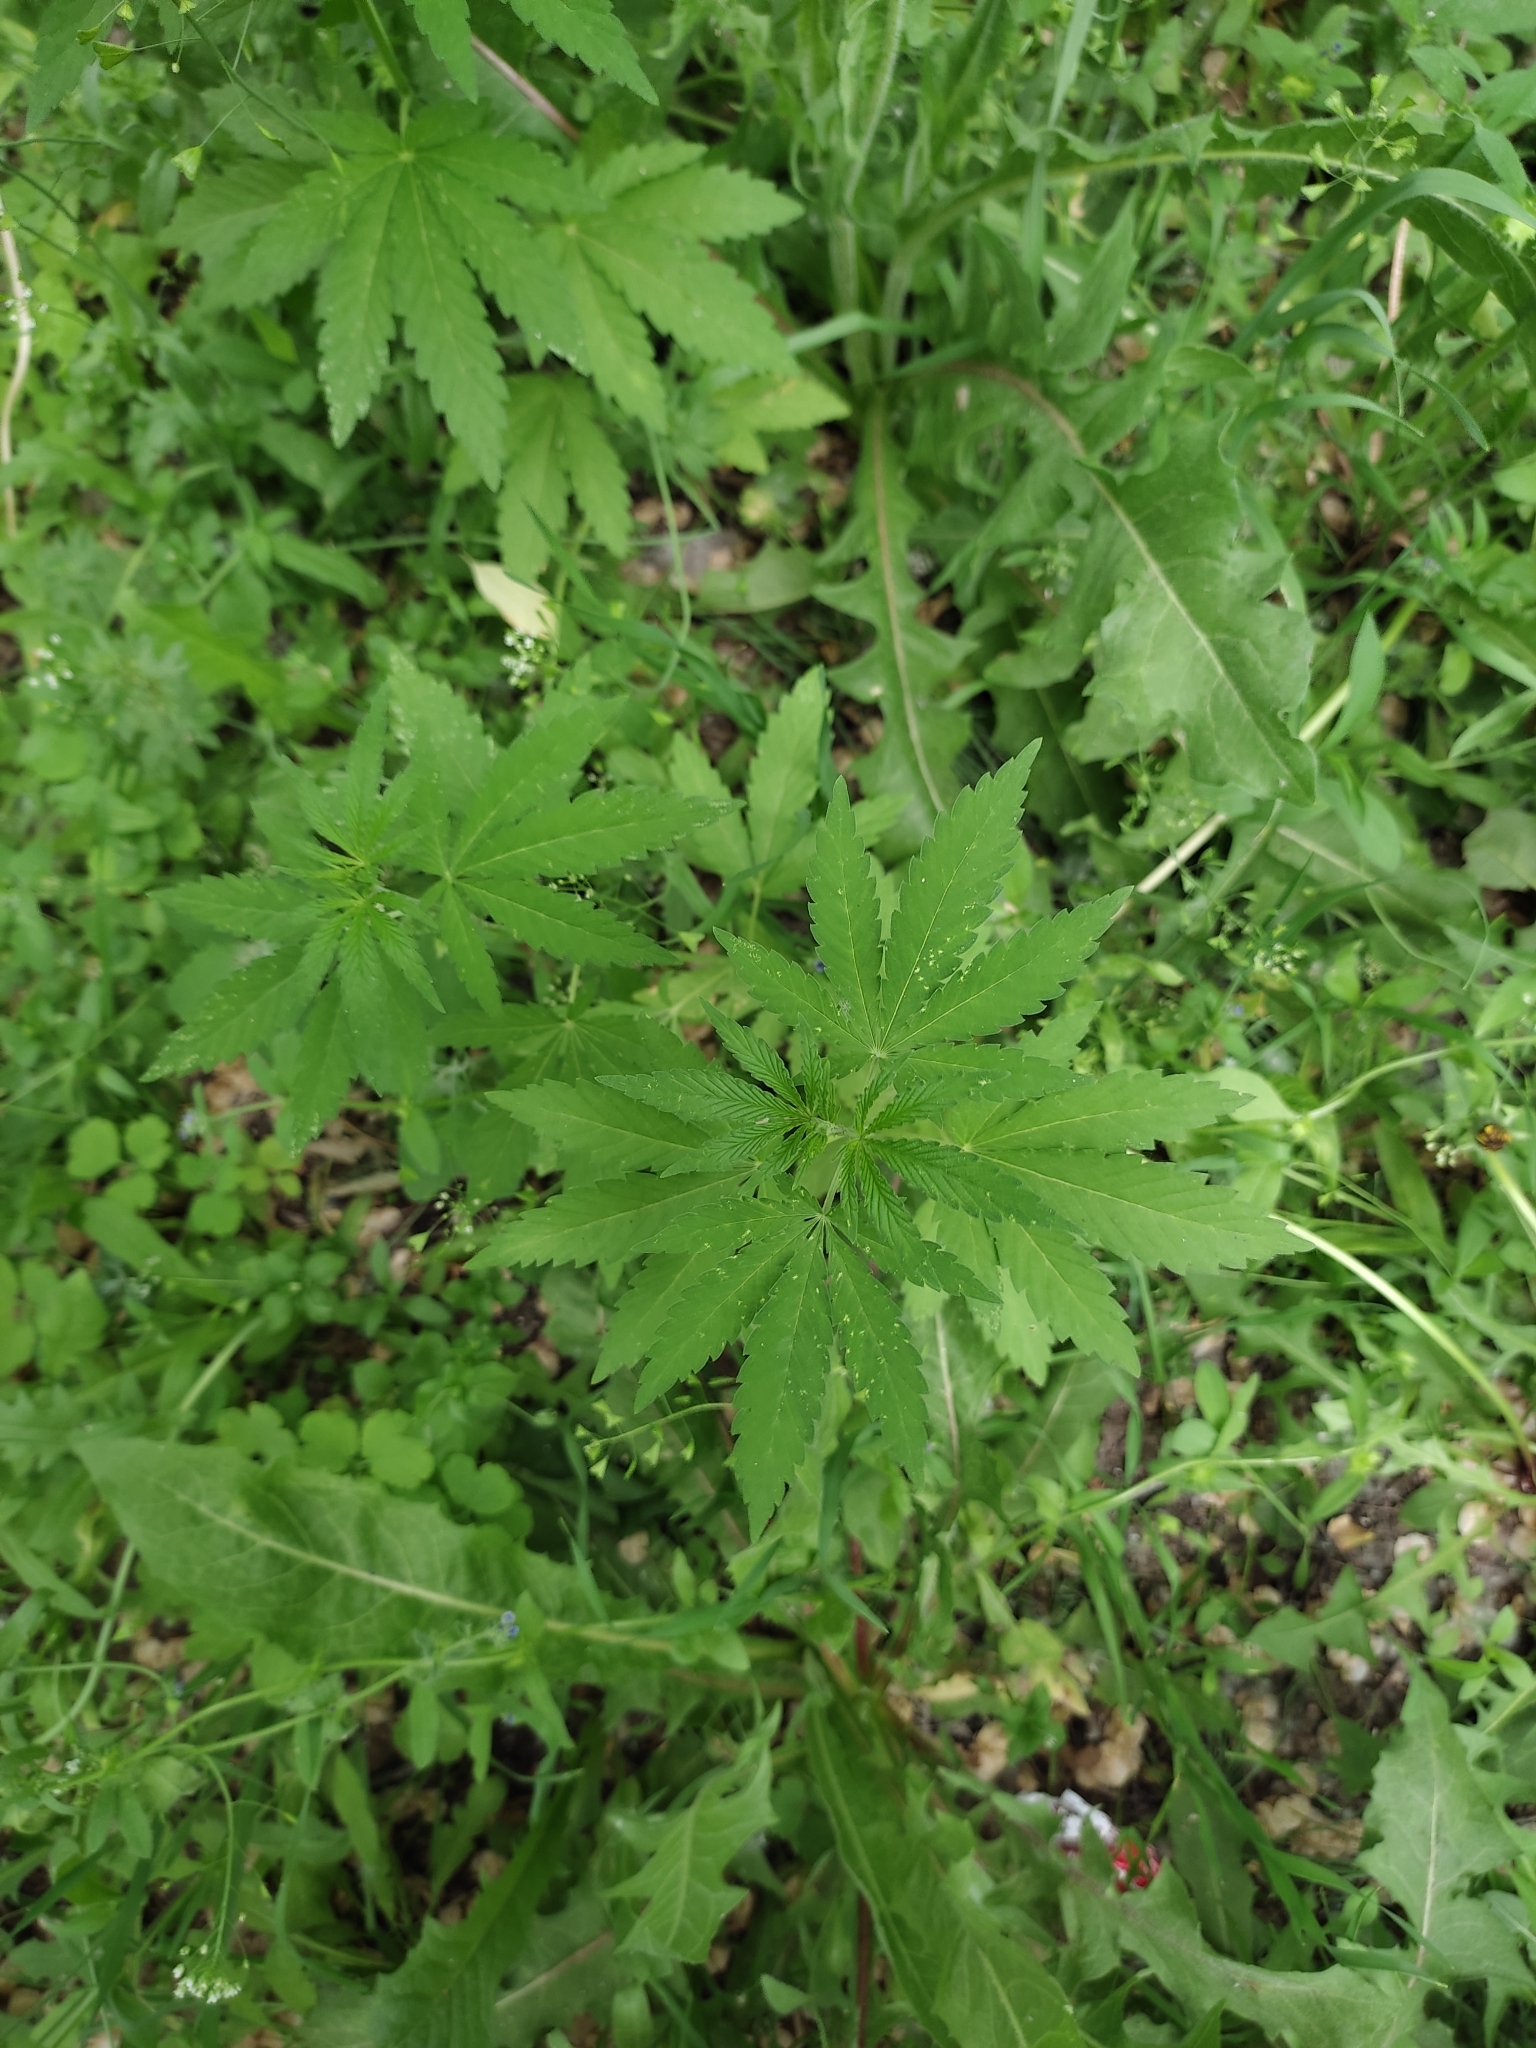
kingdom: Plantae
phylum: Tracheophyta
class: Magnoliopsida
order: Rosales
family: Cannabaceae
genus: Cannabis
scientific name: Cannabis sativa
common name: Hemp
